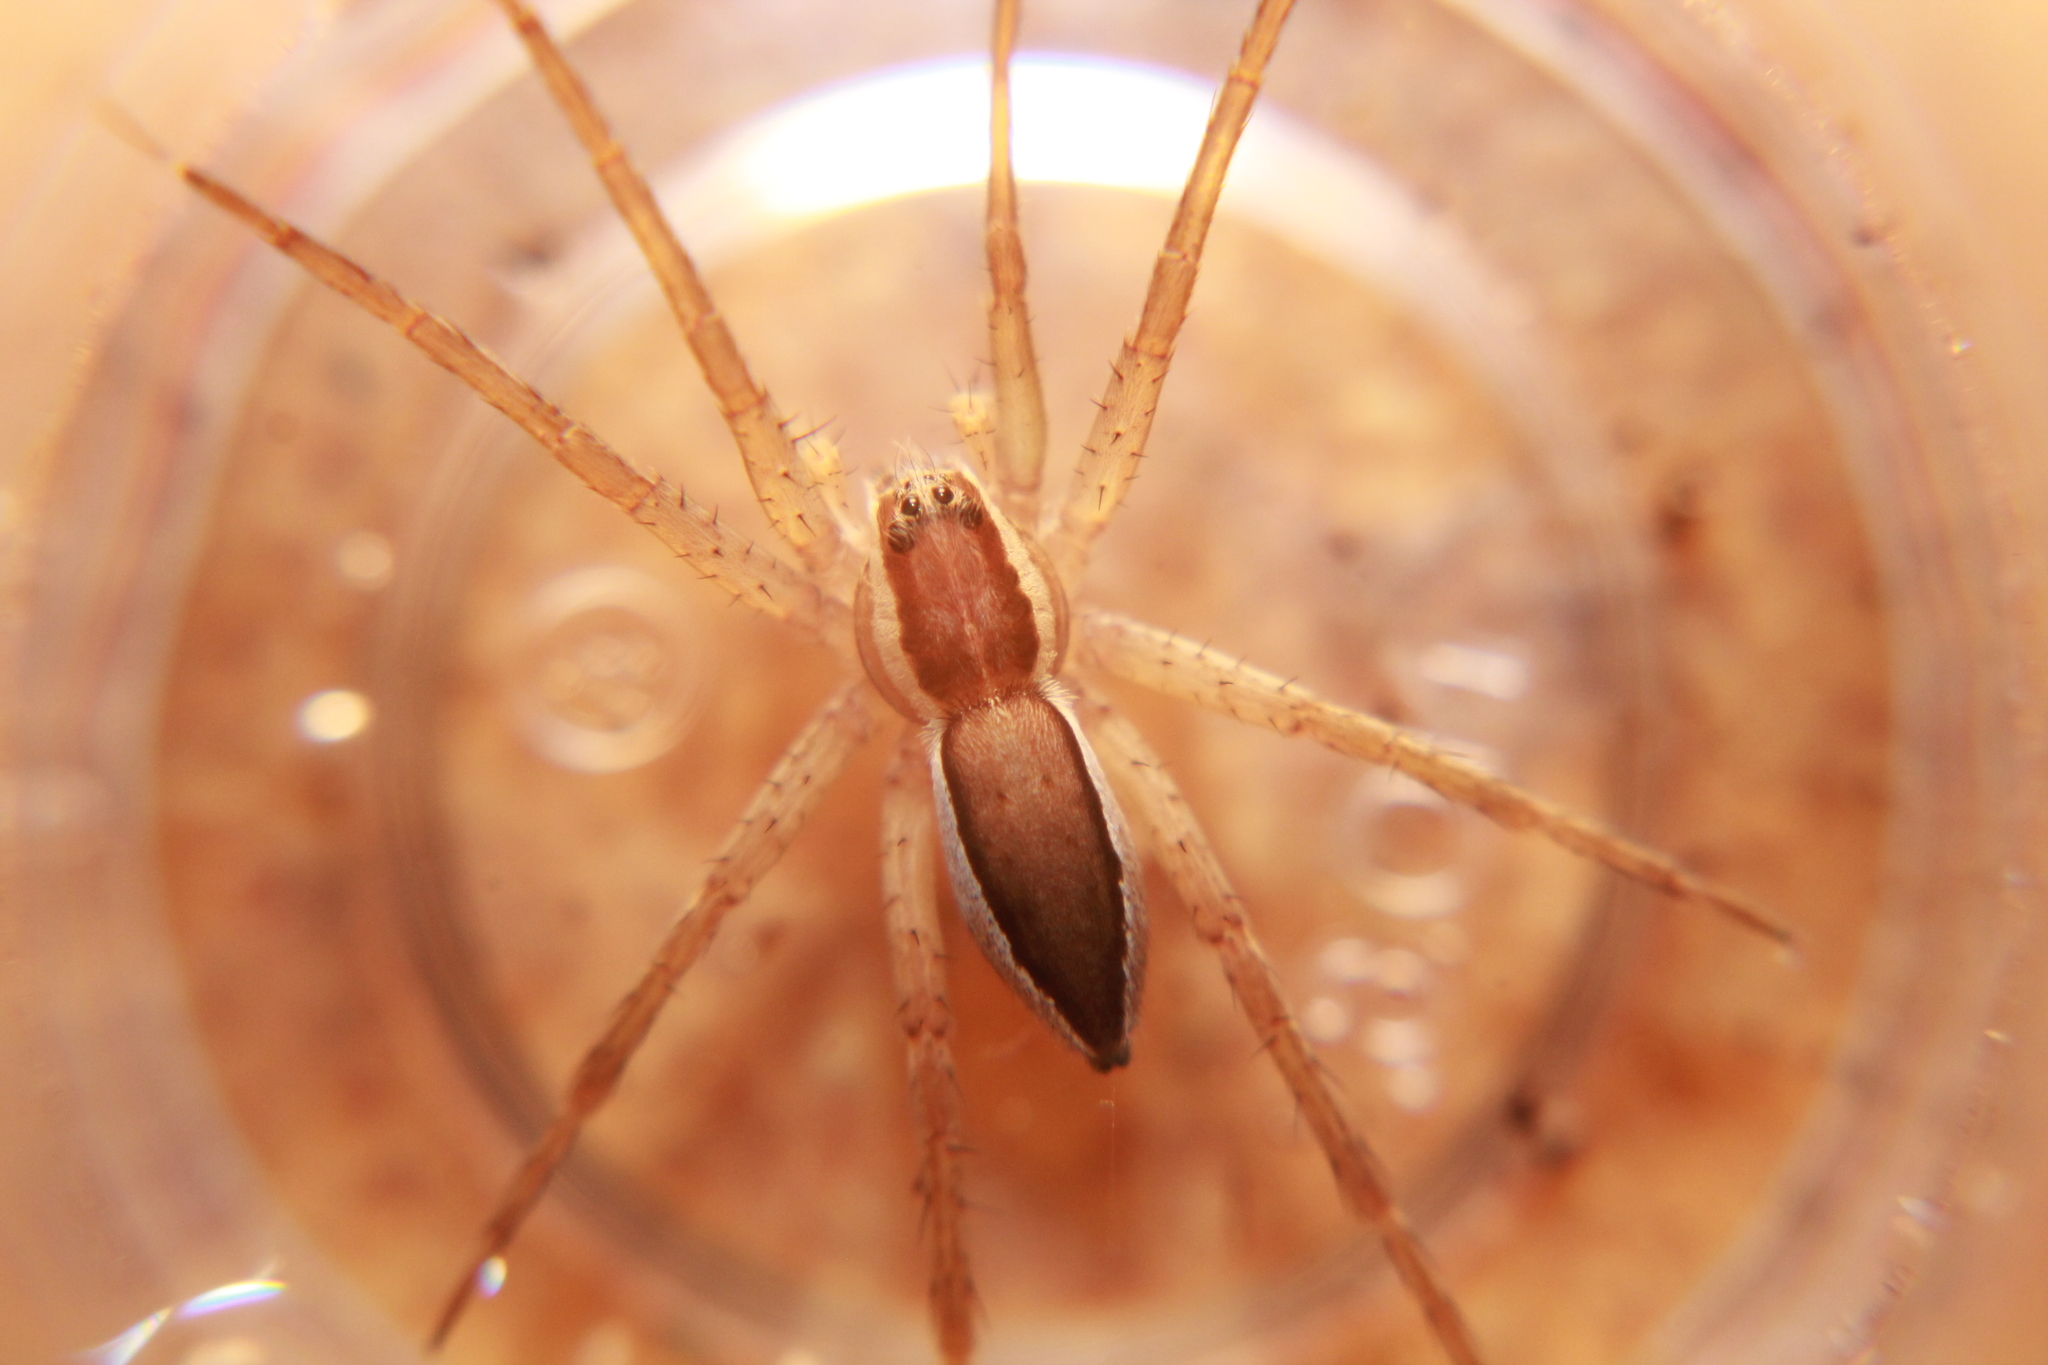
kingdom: Animalia
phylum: Arthropoda
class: Arachnida
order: Araneae
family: Pisauridae
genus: Dolomedes
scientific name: Dolomedes minor
